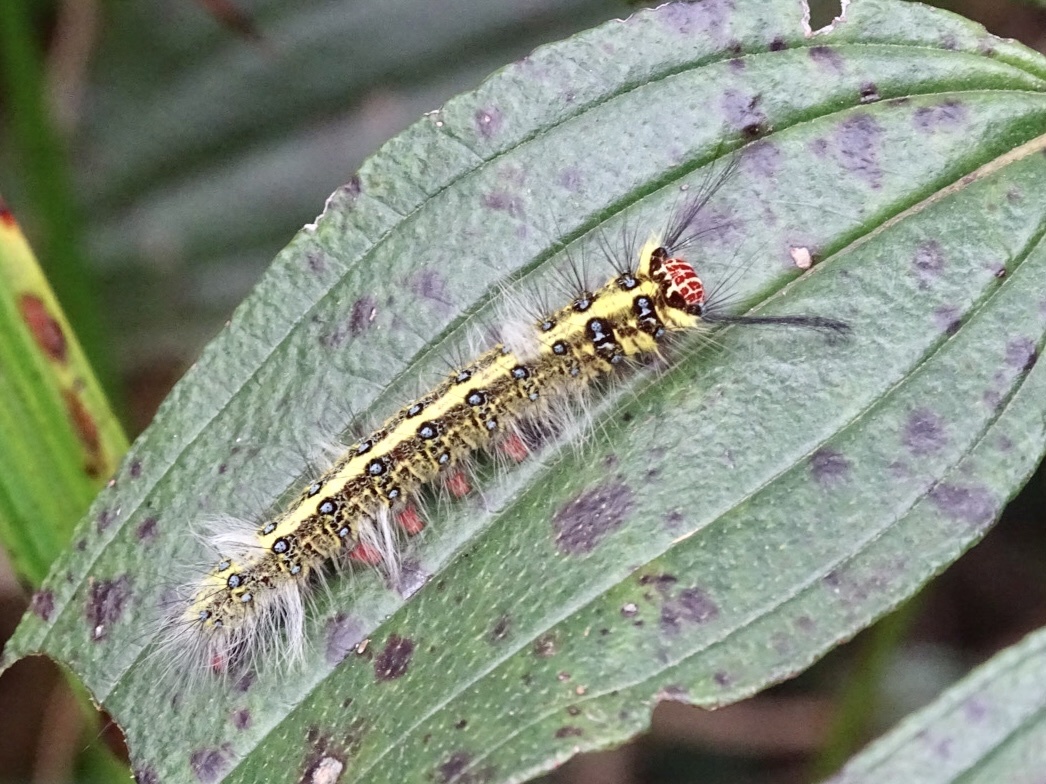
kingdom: Animalia
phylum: Arthropoda
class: Insecta
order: Lepidoptera
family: Lasiocampidae
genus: Trabala
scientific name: Trabala pallida
